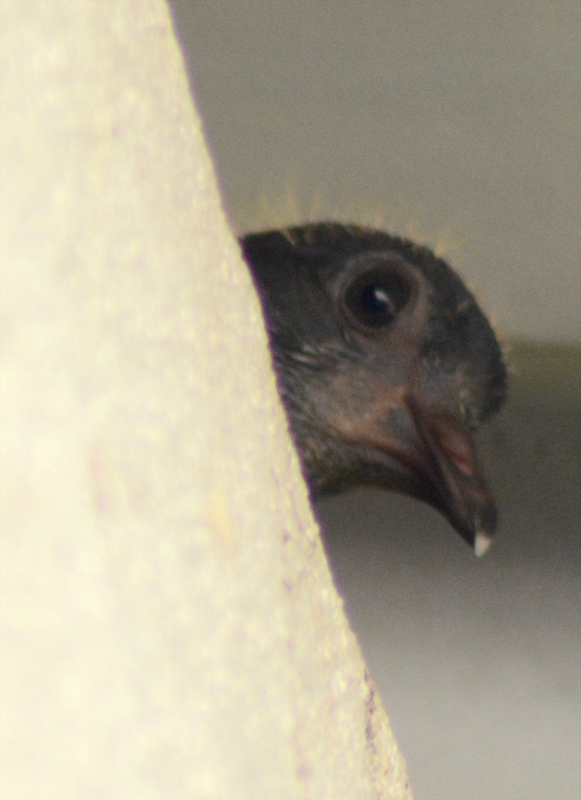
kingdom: Animalia
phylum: Chordata
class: Aves
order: Columbiformes
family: Columbidae
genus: Columba
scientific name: Columba livia
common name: Rock pigeon
